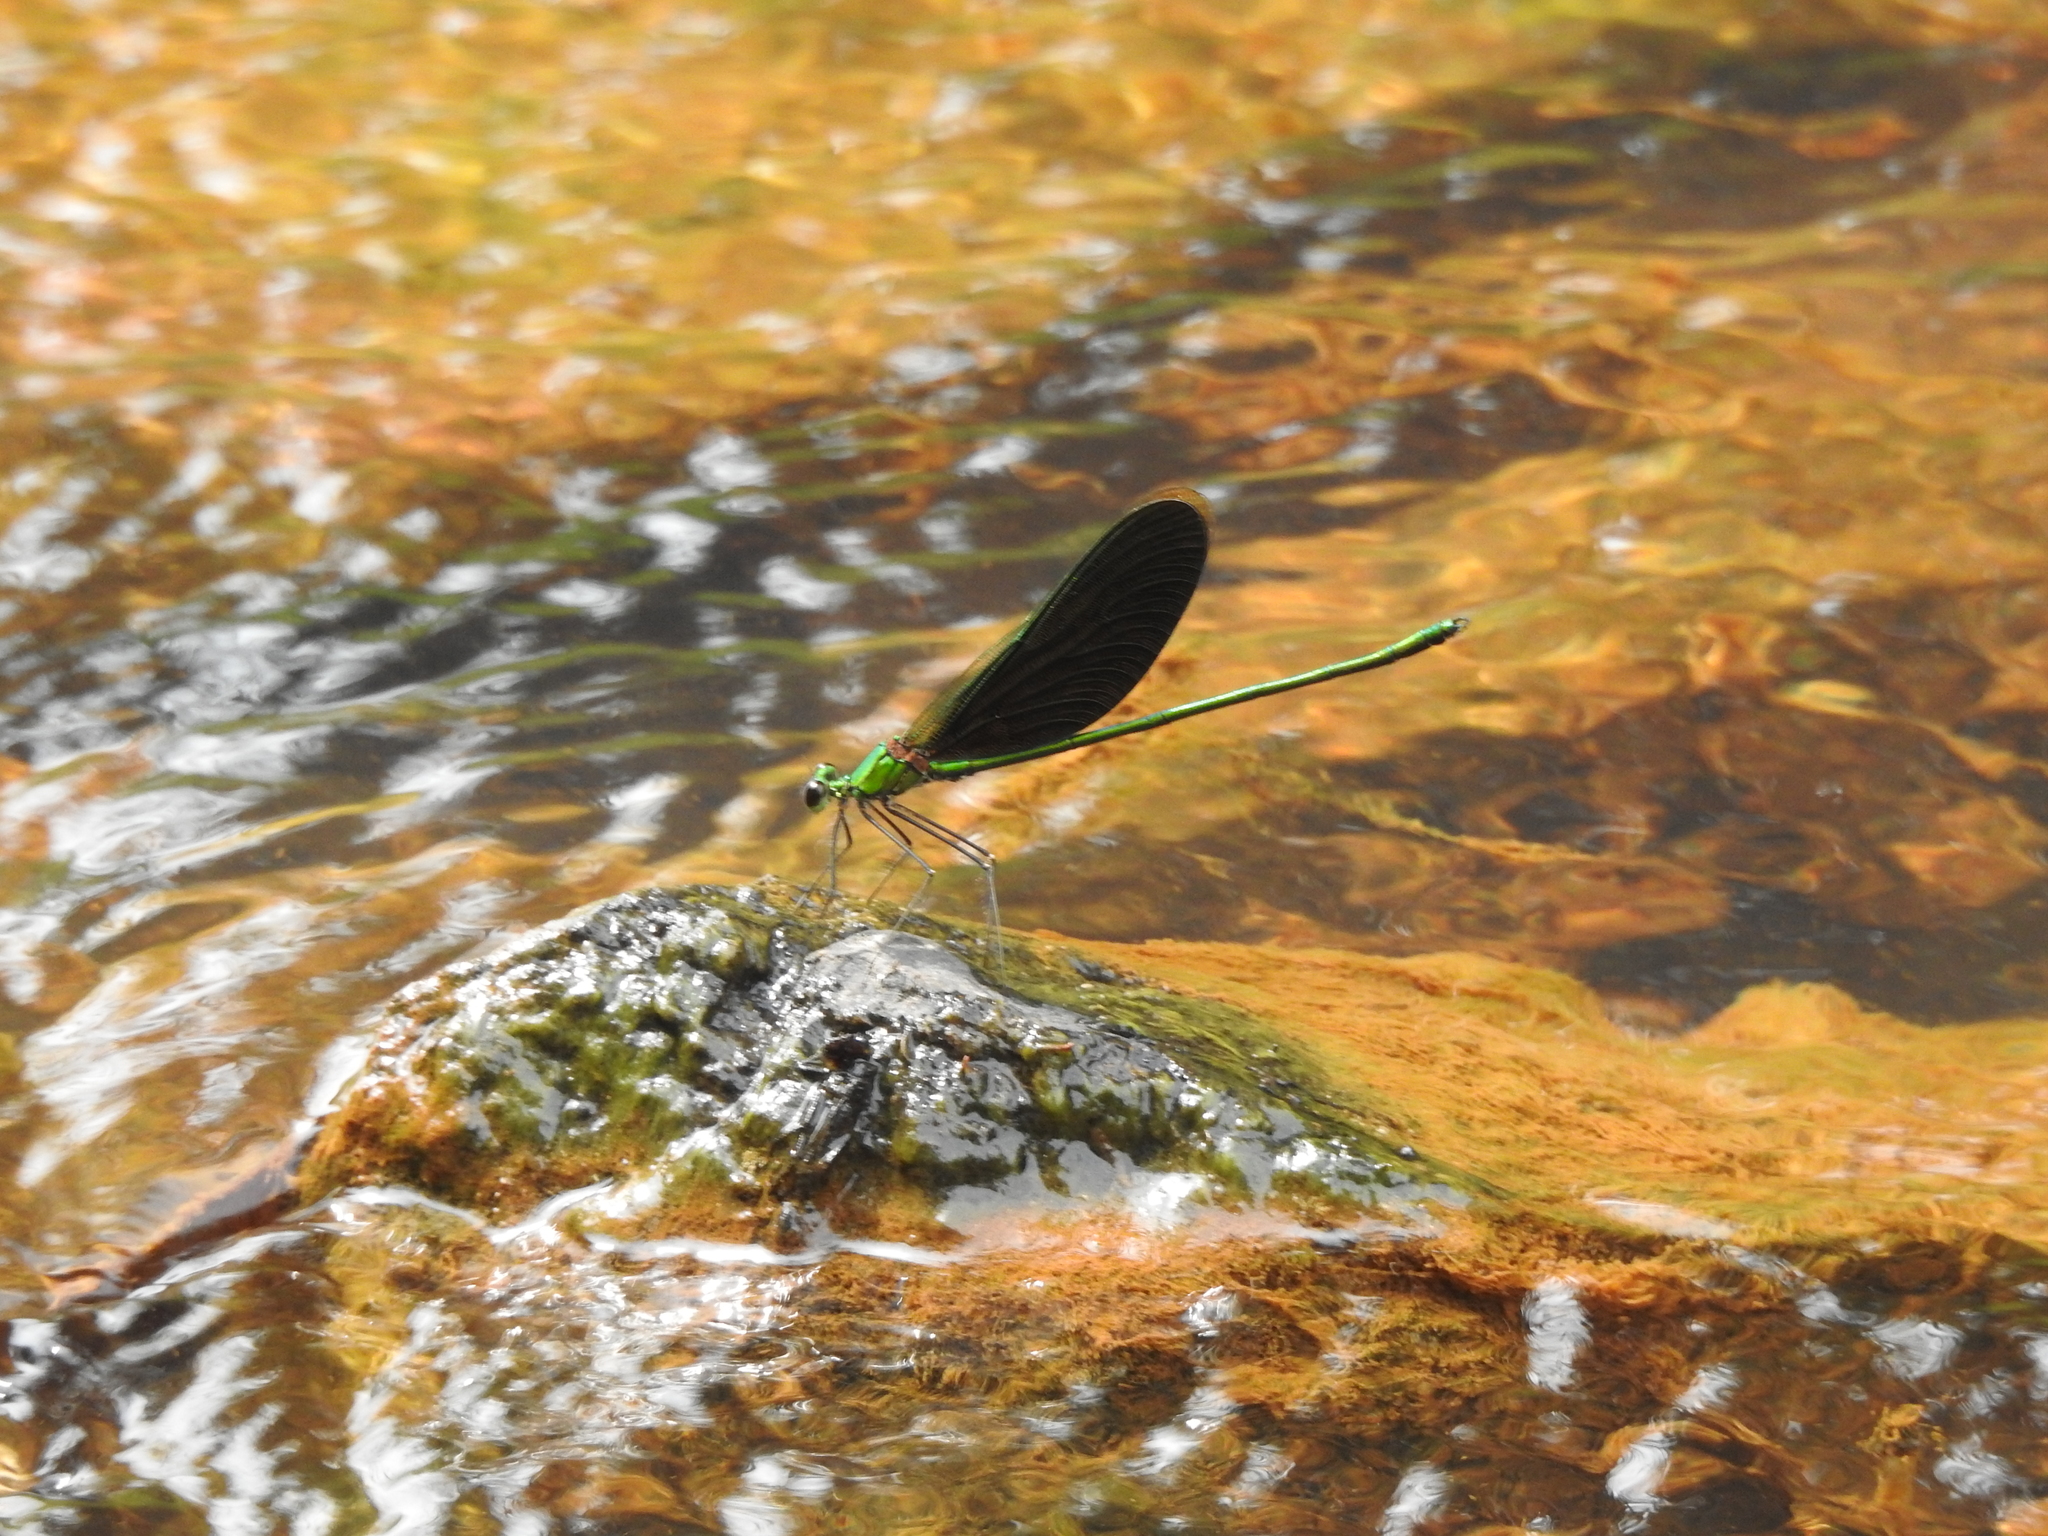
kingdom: Animalia
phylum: Arthropoda
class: Insecta
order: Odonata
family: Calopterygidae
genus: Neurobasis
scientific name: Neurobasis chinensis
